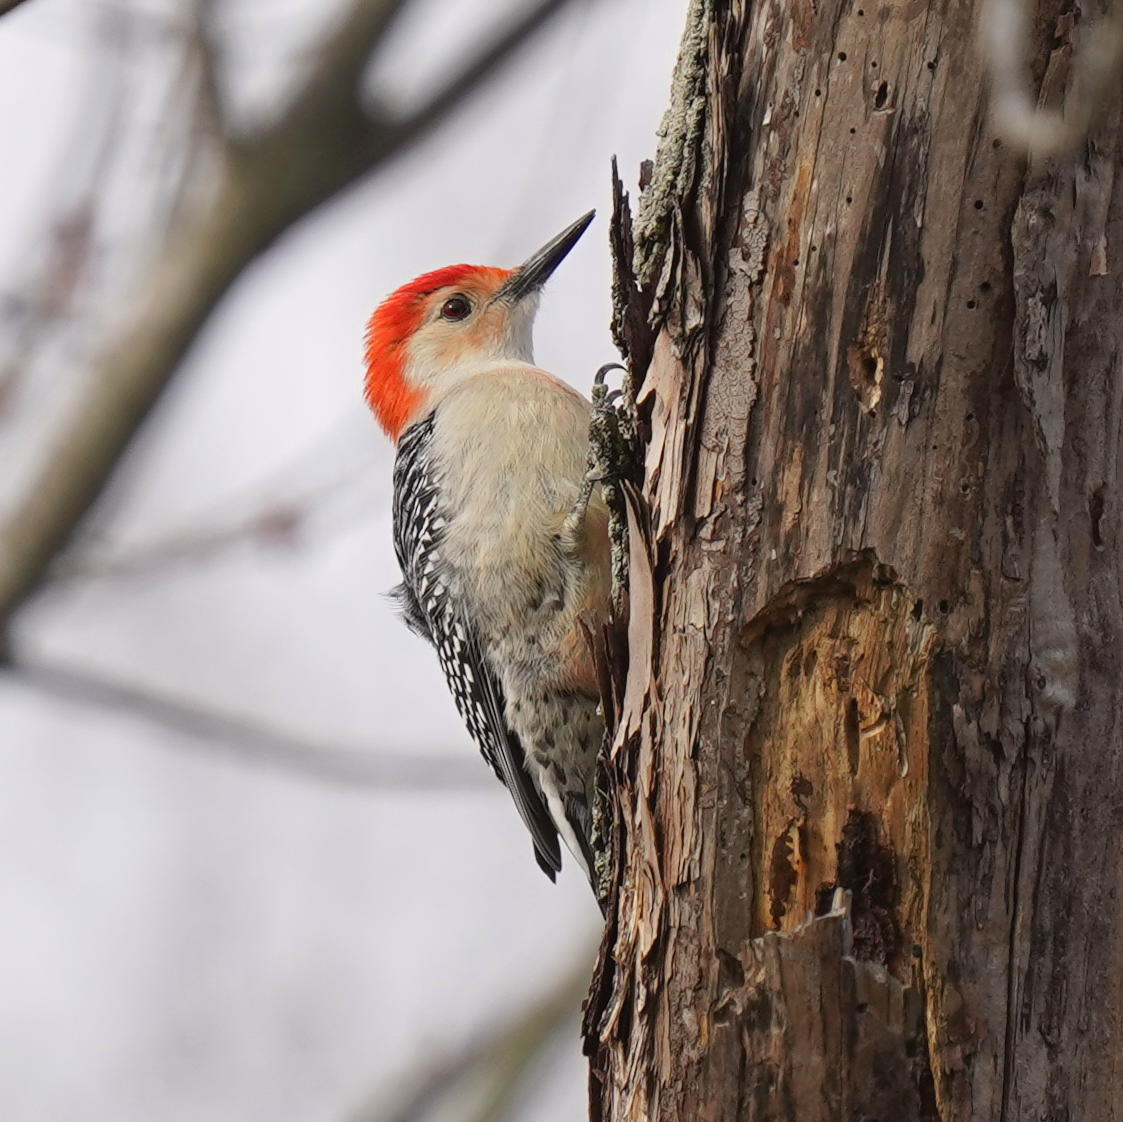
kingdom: Animalia
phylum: Chordata
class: Aves
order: Piciformes
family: Picidae
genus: Melanerpes
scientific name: Melanerpes carolinus
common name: Red-bellied woodpecker
